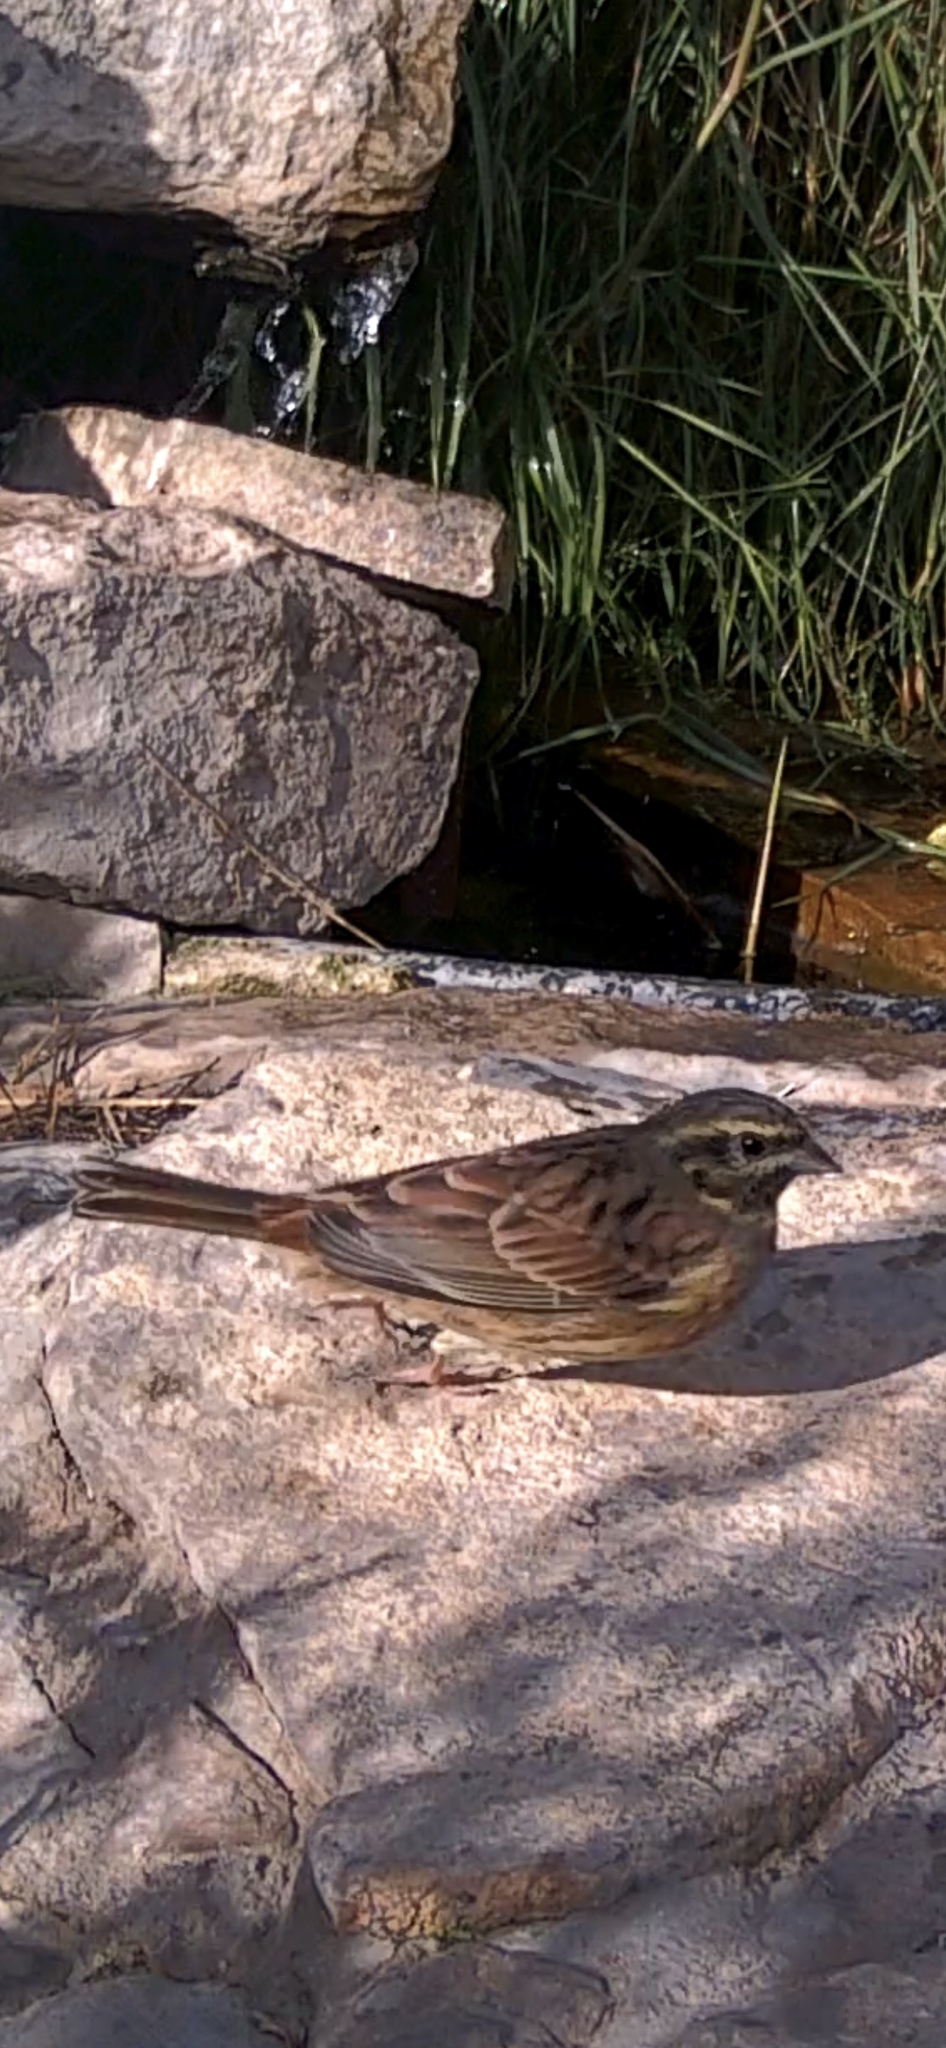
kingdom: Animalia
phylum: Chordata
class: Aves
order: Passeriformes
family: Emberizidae
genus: Emberiza
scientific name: Emberiza cirlus
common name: Cirl bunting
